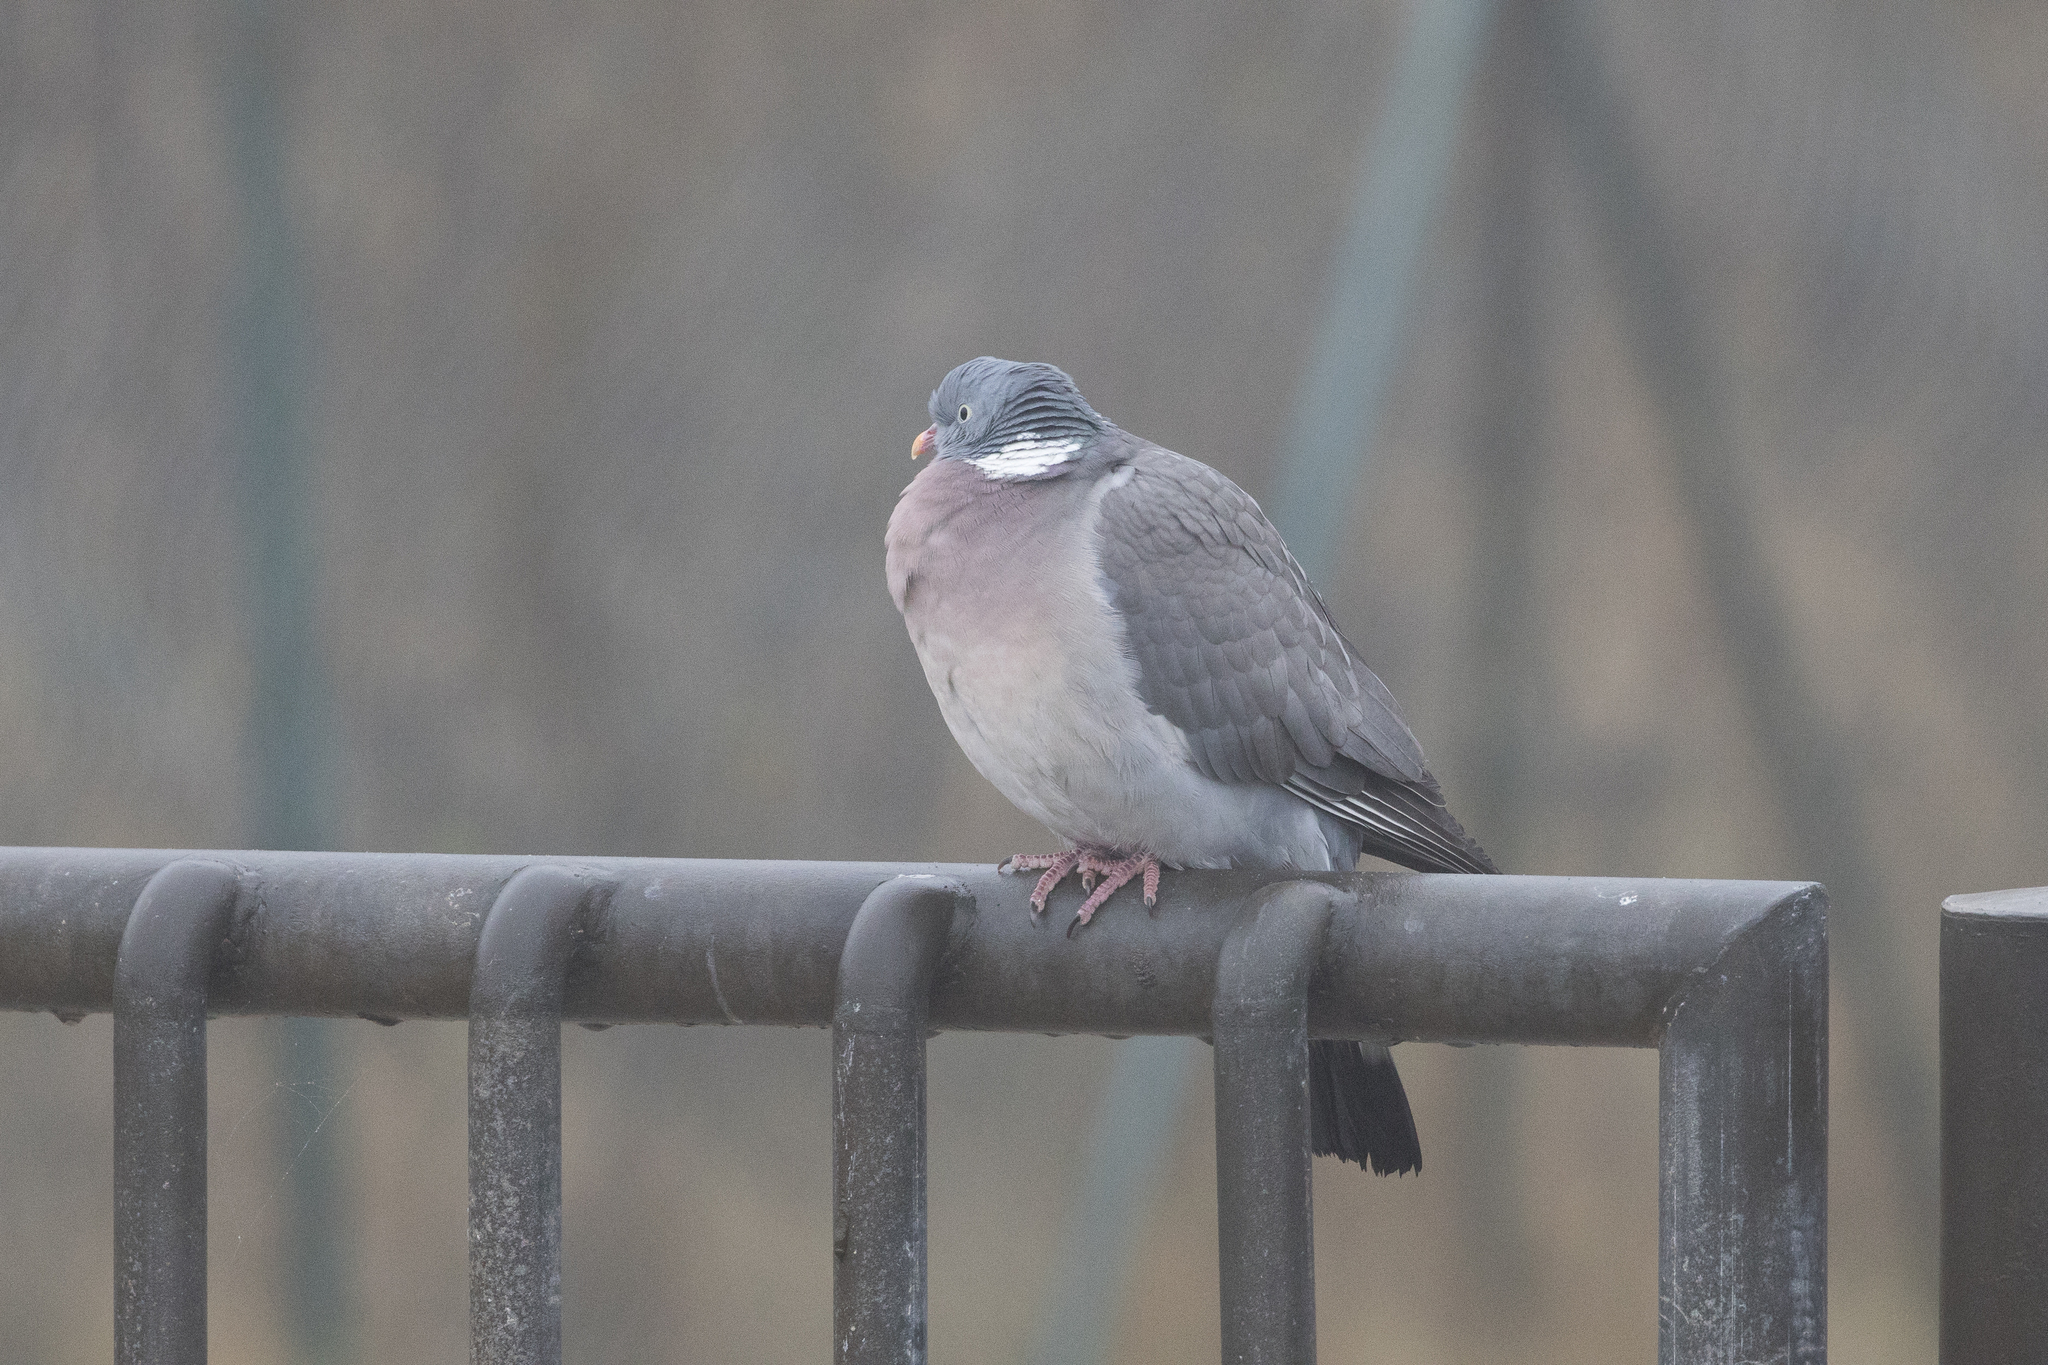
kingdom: Animalia
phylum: Chordata
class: Aves
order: Columbiformes
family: Columbidae
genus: Columba
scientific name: Columba palumbus
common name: Common wood pigeon
